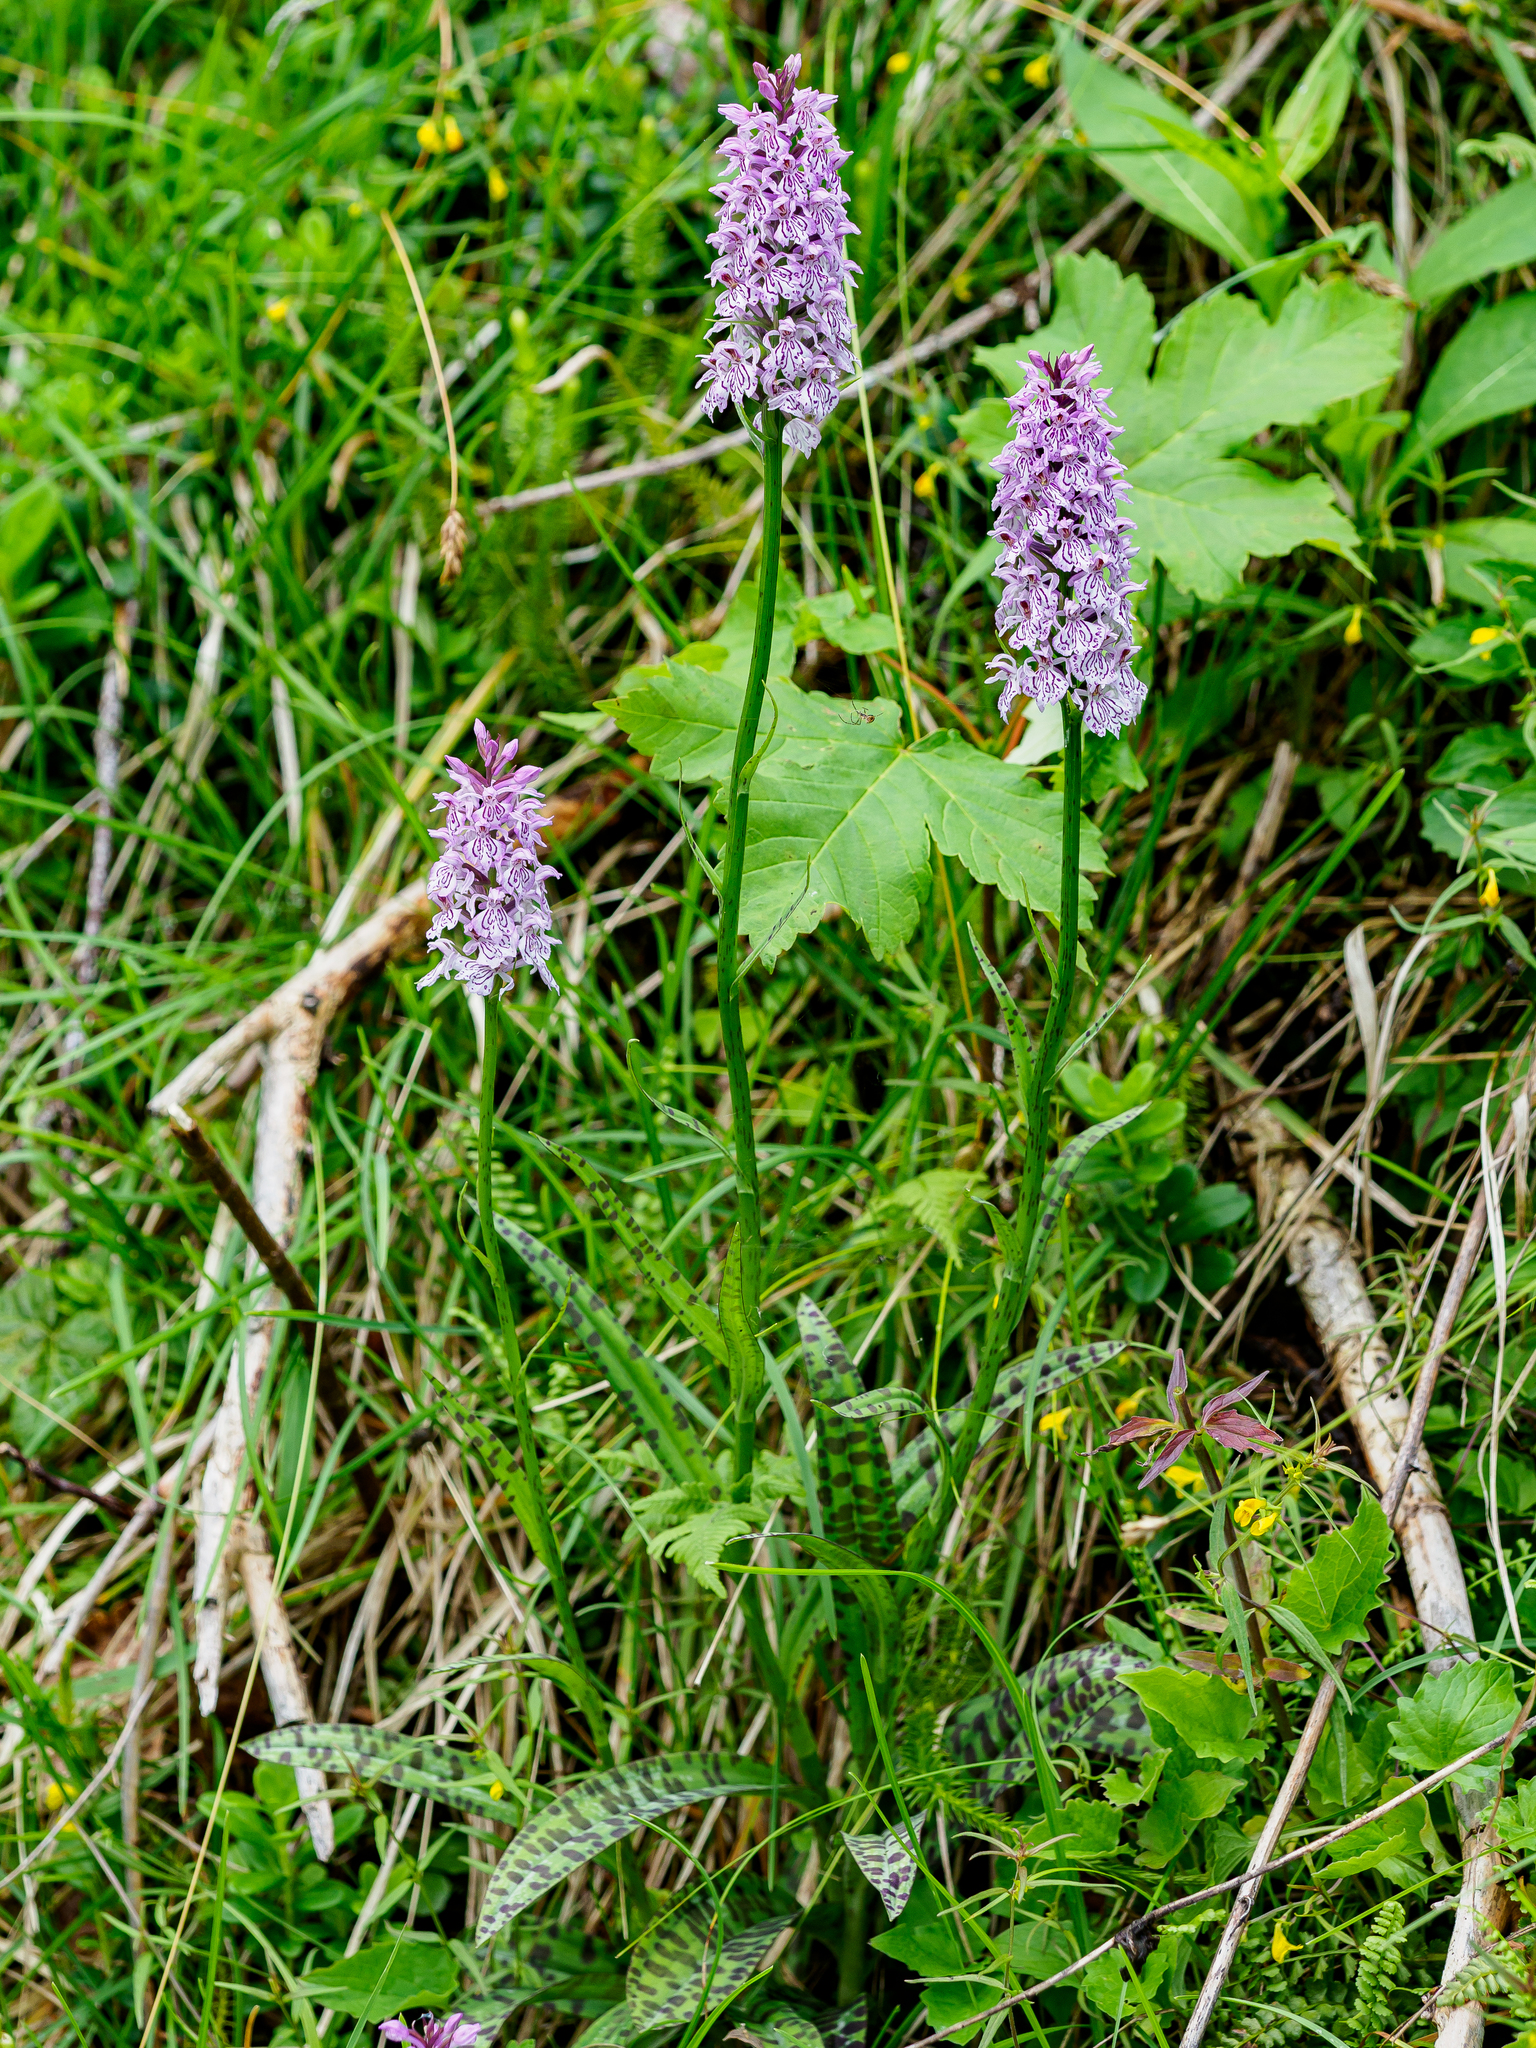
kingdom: Plantae
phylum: Tracheophyta
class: Liliopsida
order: Asparagales
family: Orchidaceae
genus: Dactylorhiza
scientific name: Dactylorhiza maculata
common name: Heath spotted-orchid
